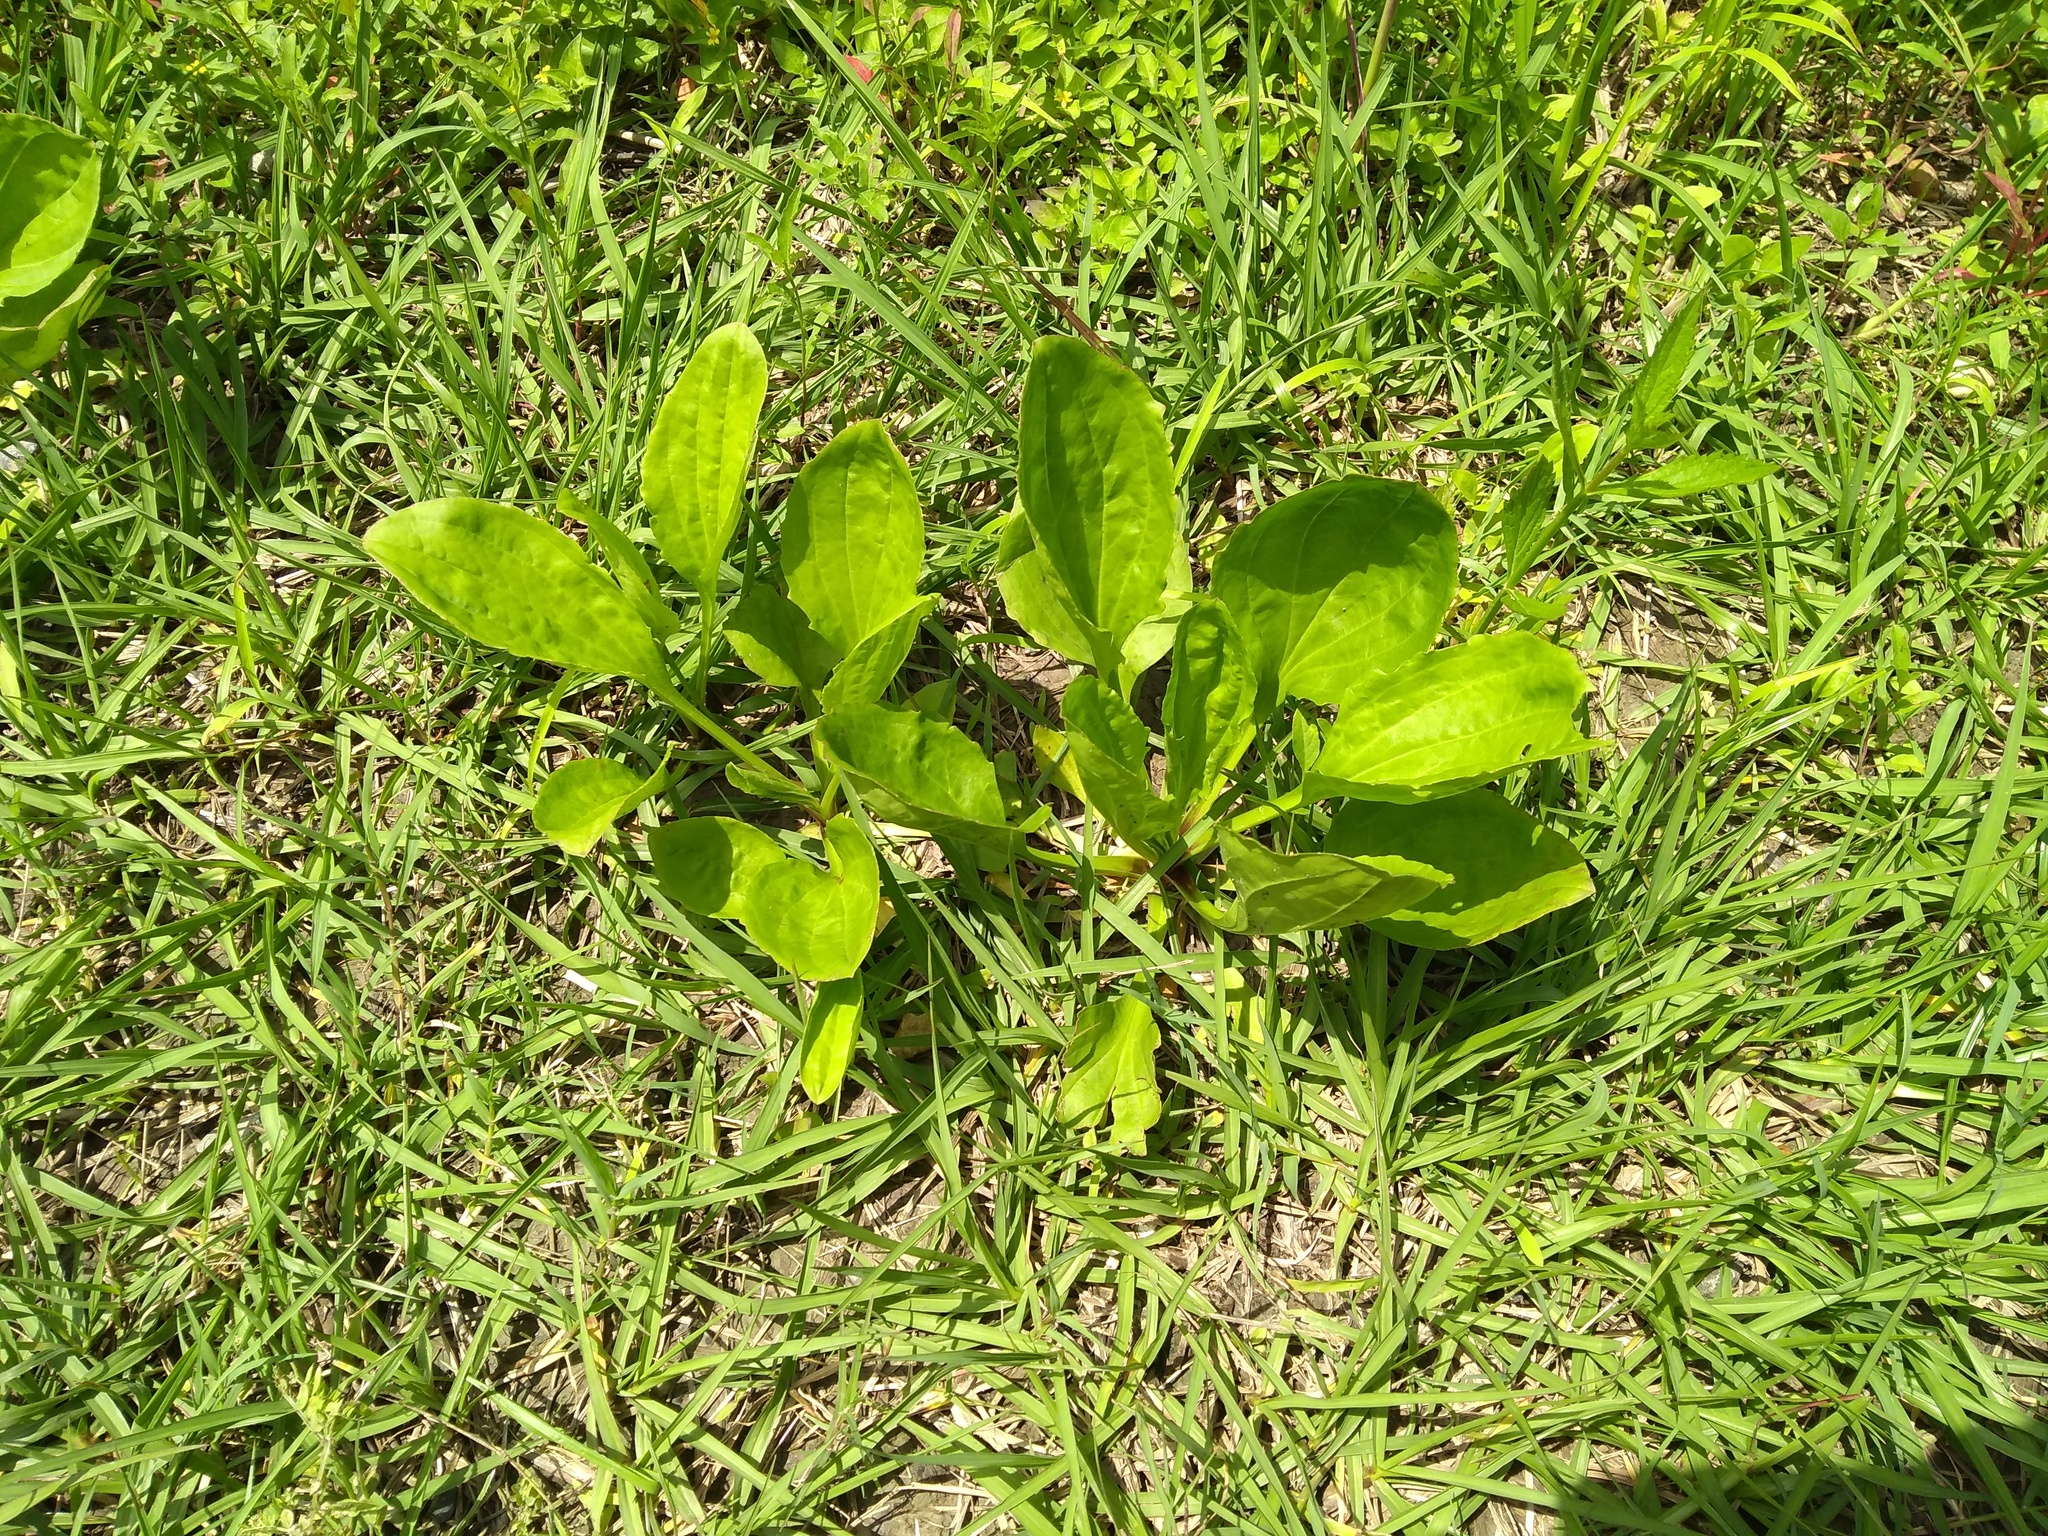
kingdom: Plantae
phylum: Tracheophyta
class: Magnoliopsida
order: Lamiales
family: Plantaginaceae
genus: Plantago
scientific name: Plantago rugelii
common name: American plantain
